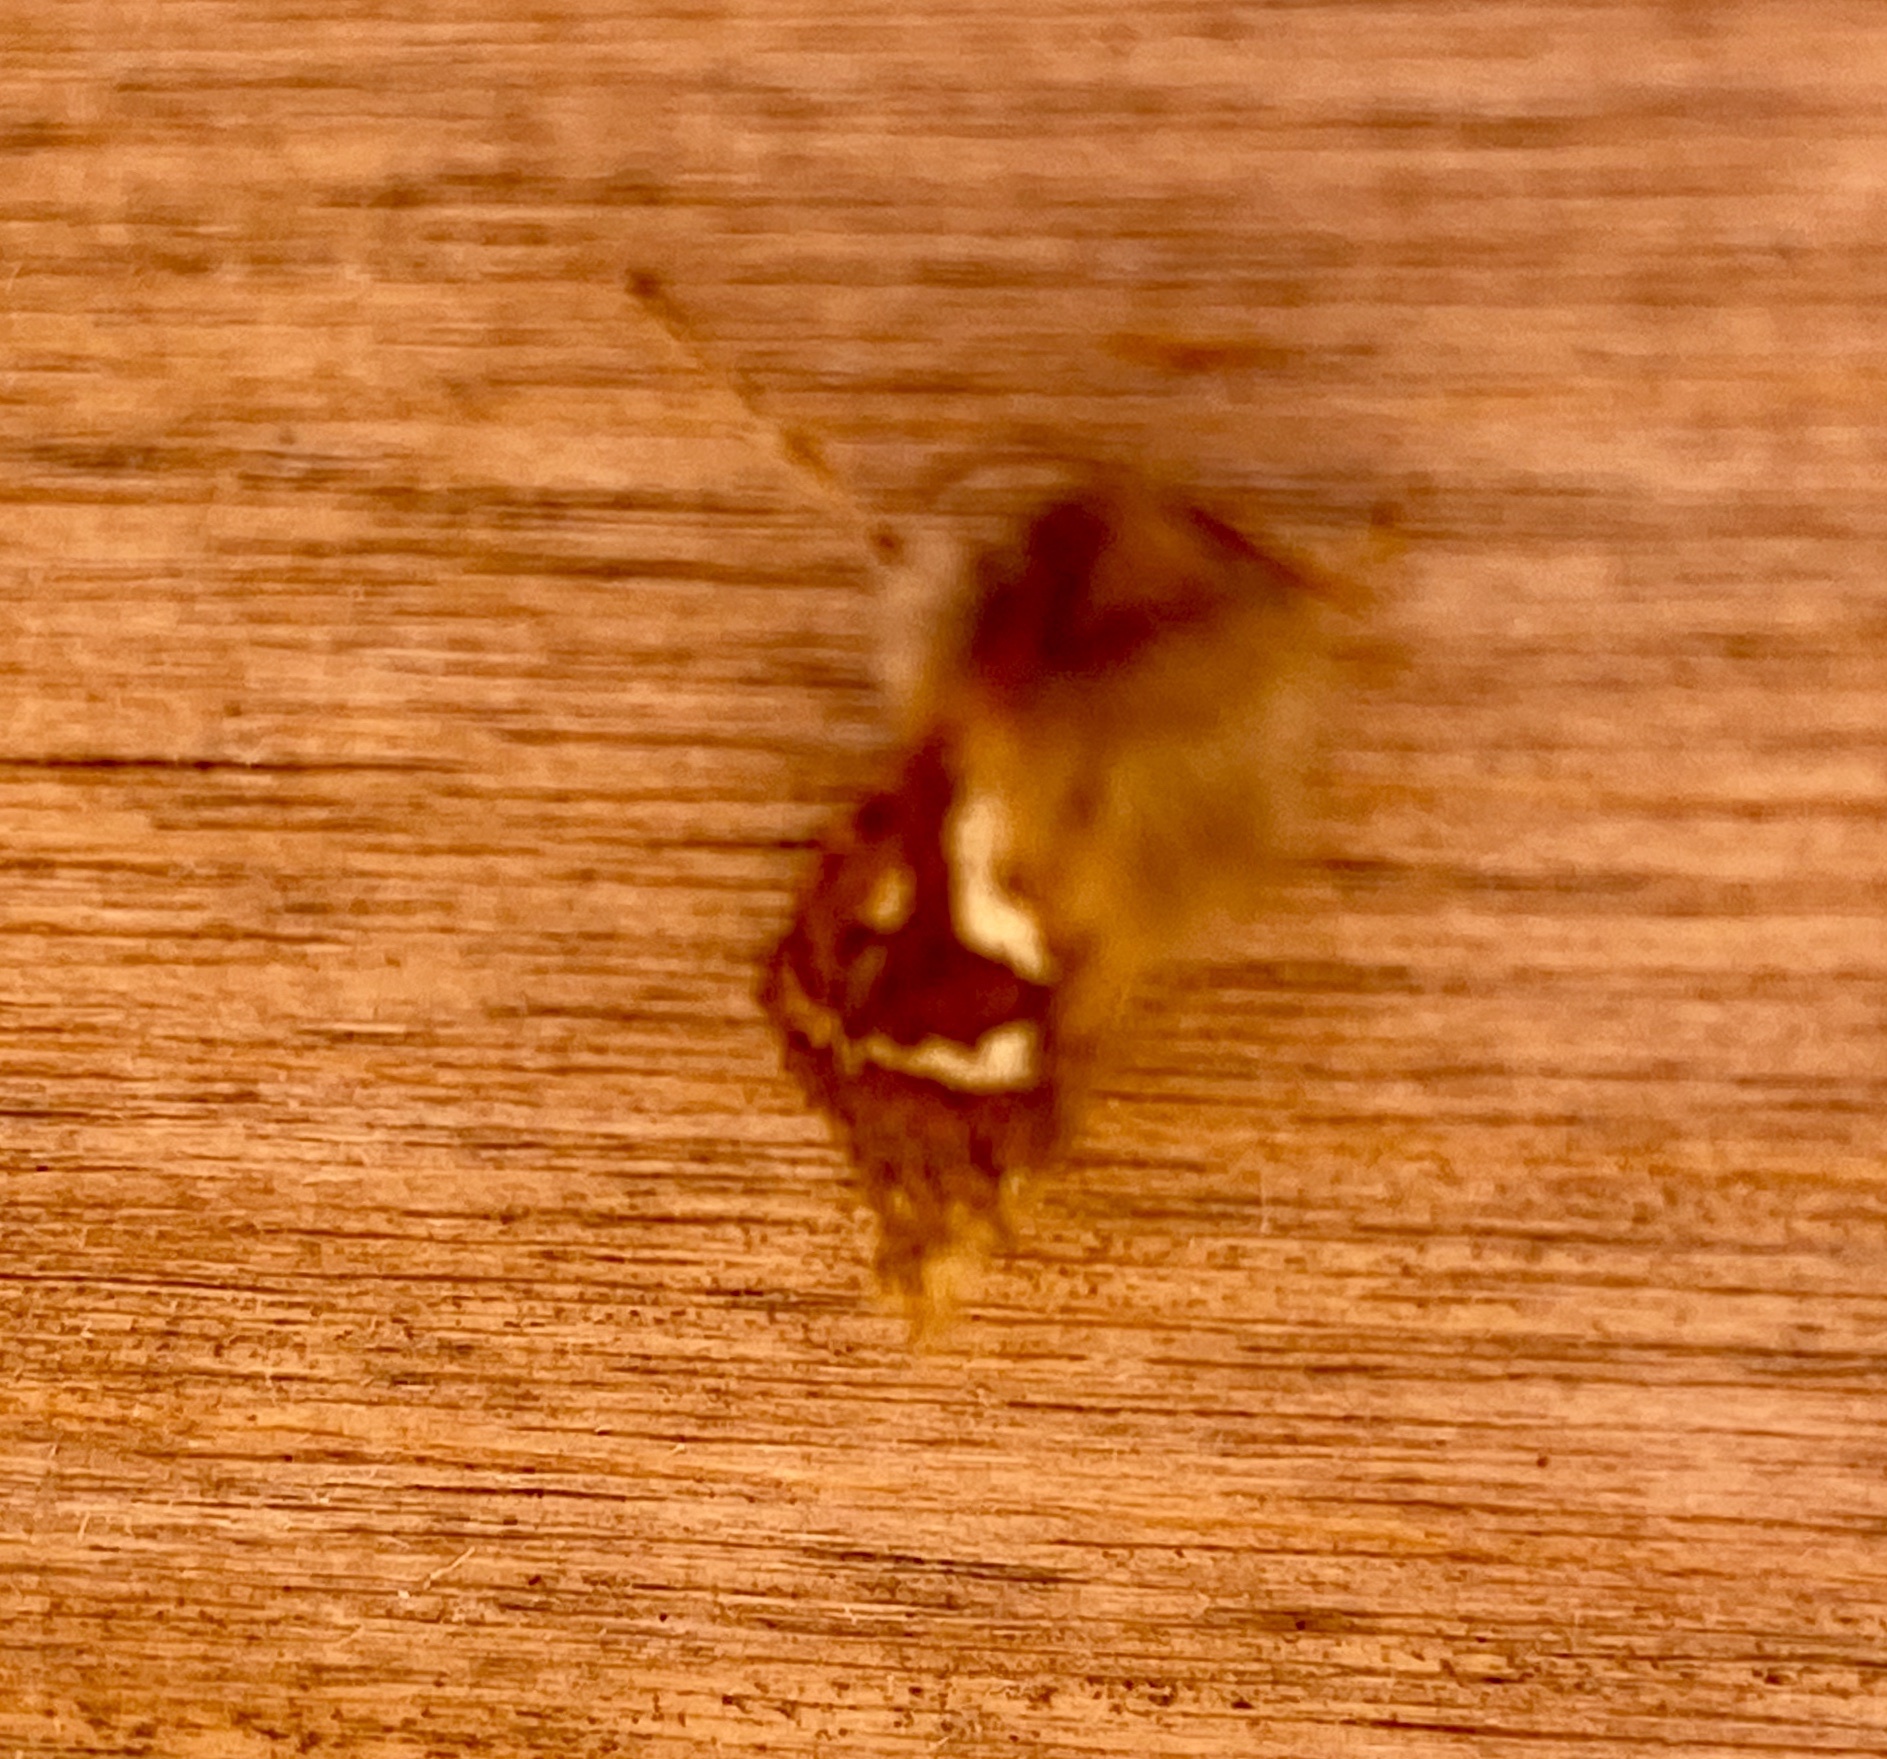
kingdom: Animalia
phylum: Arthropoda
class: Insecta
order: Lepidoptera
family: Hepialidae
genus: Korscheltellus
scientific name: Korscheltellus lupulina
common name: Common swift
